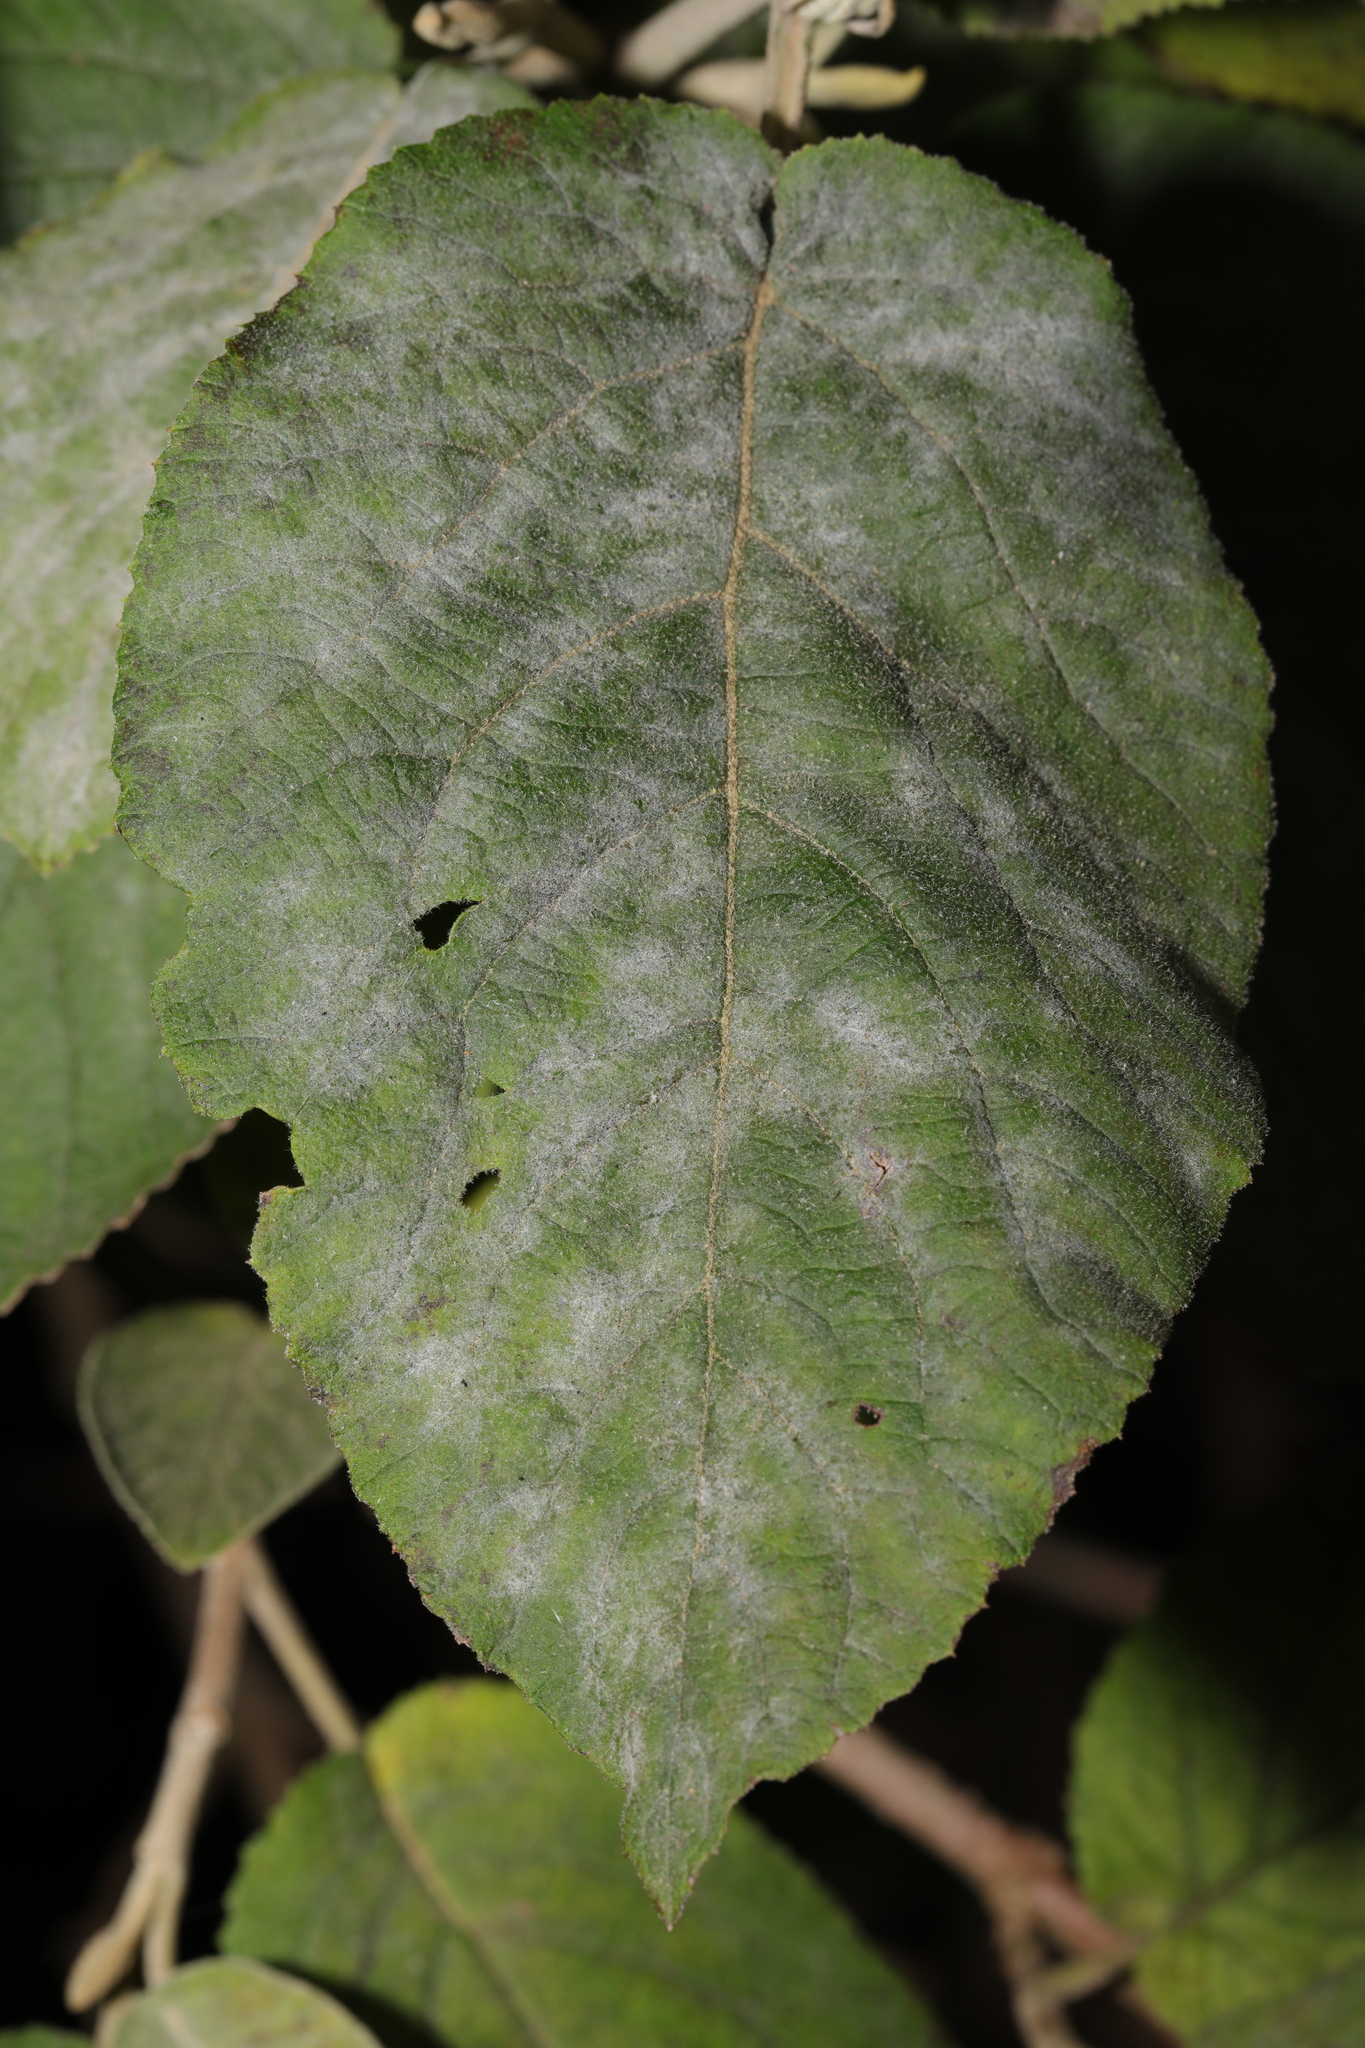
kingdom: Fungi
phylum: Ascomycota
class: Leotiomycetes
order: Helotiales
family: Erysiphaceae
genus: Erysiphe
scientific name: Erysiphe viburni
